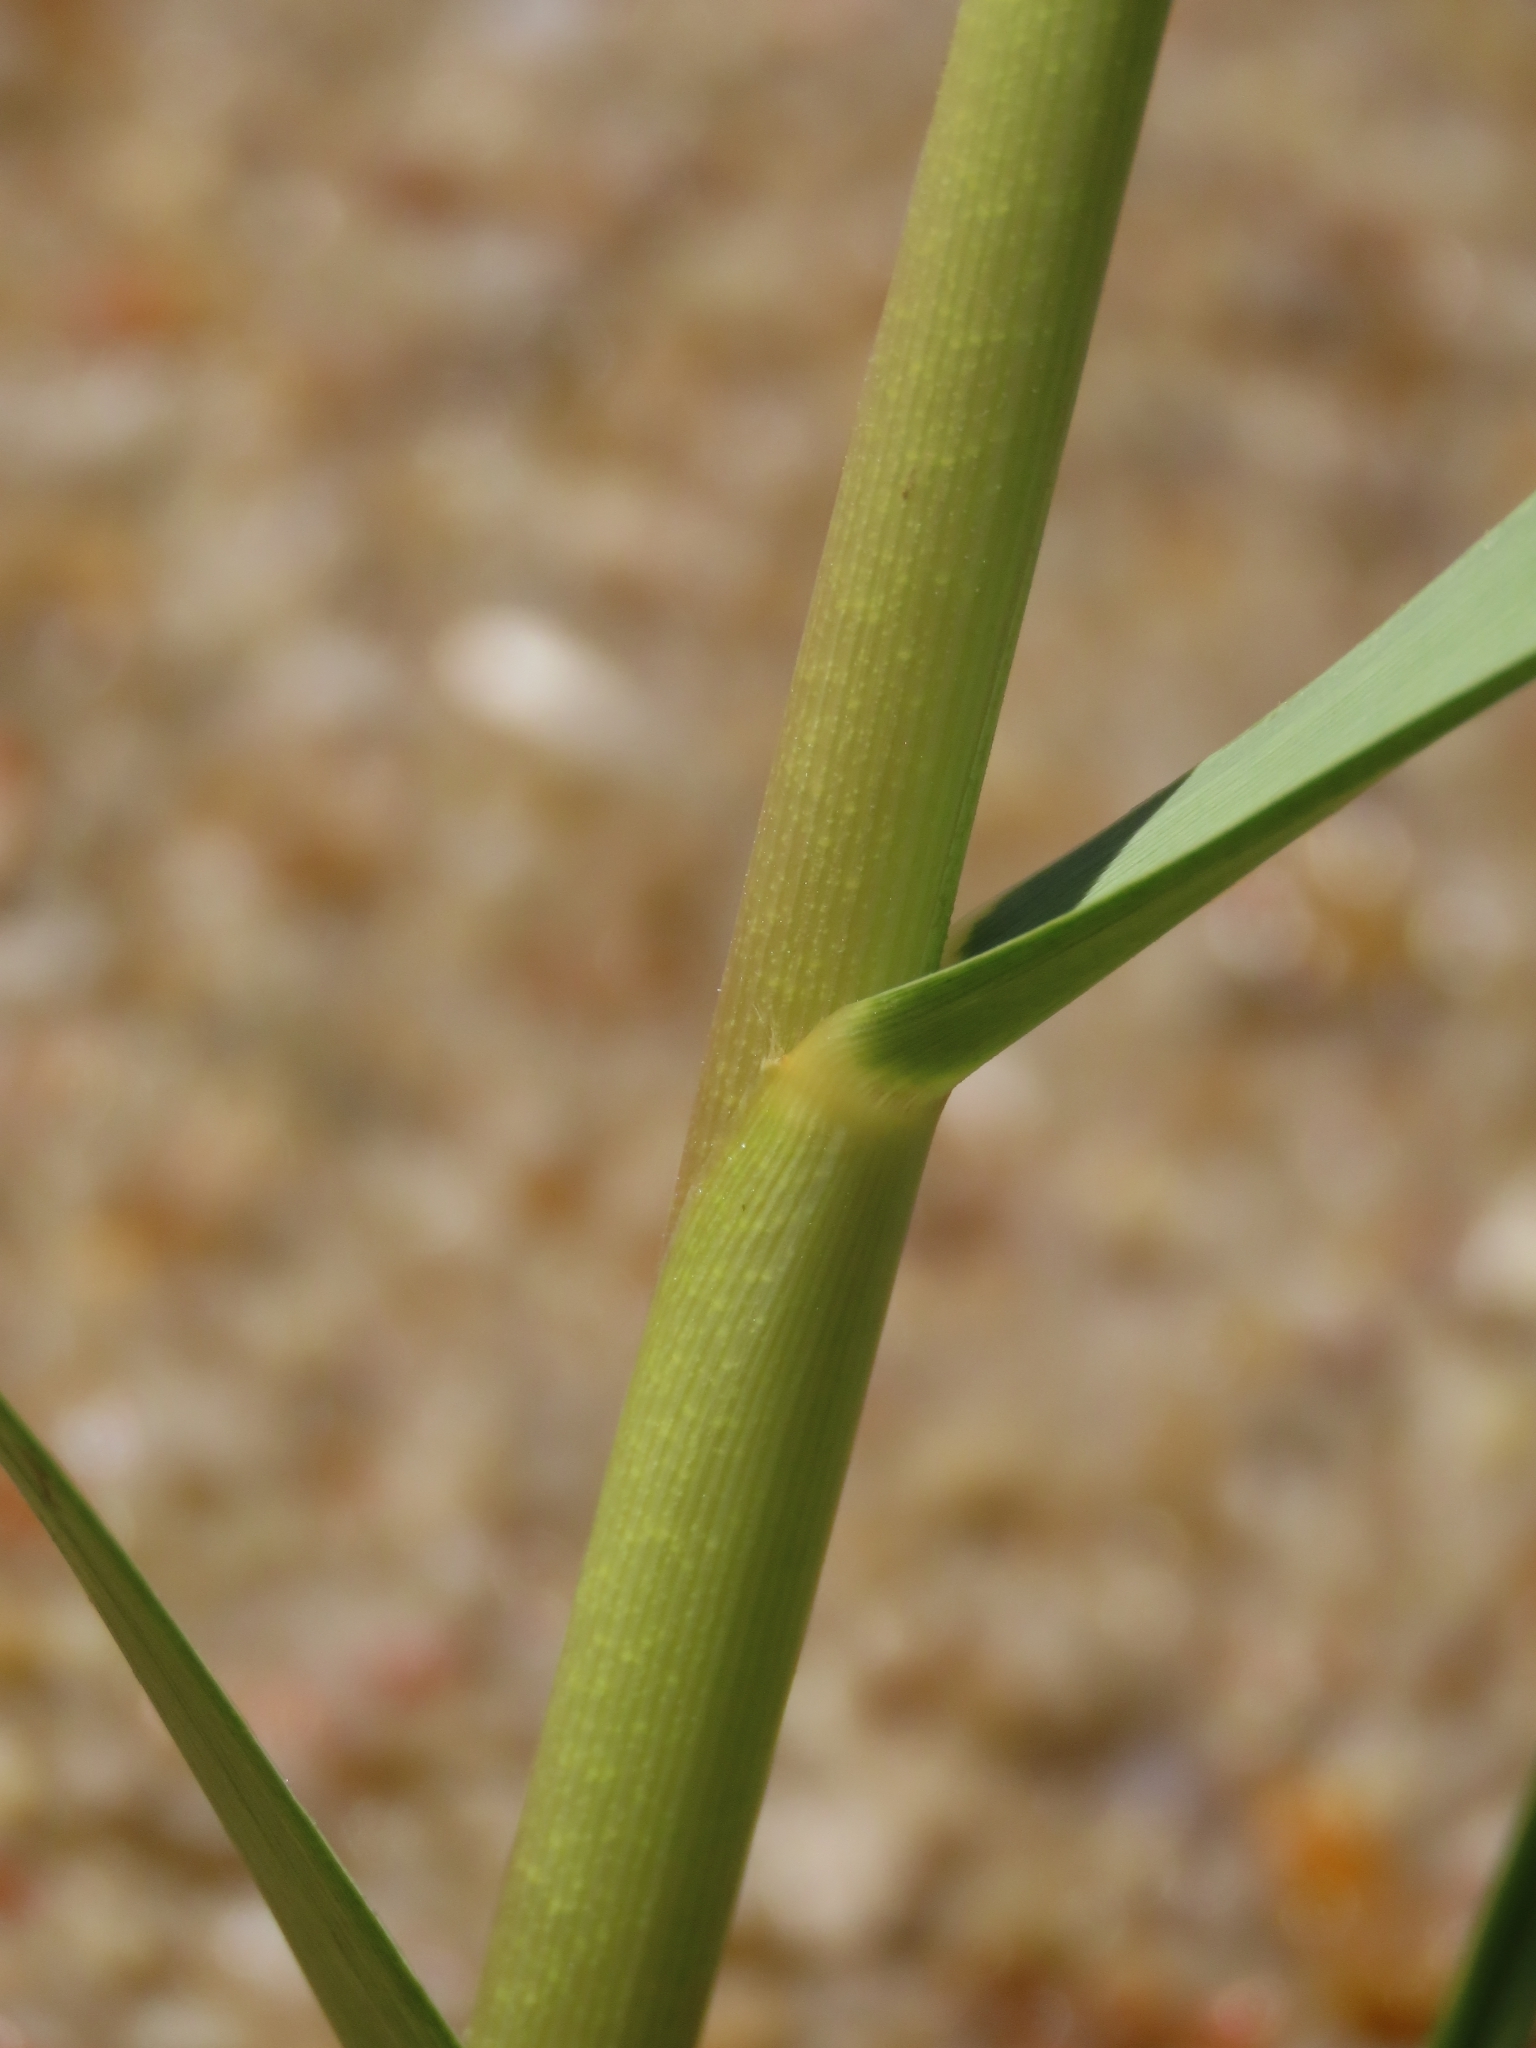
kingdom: Plantae
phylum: Tracheophyta
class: Liliopsida
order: Poales
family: Poaceae
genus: Sporobolus
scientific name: Sporobolus alterniflorus
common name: Atlantic cordgrass
